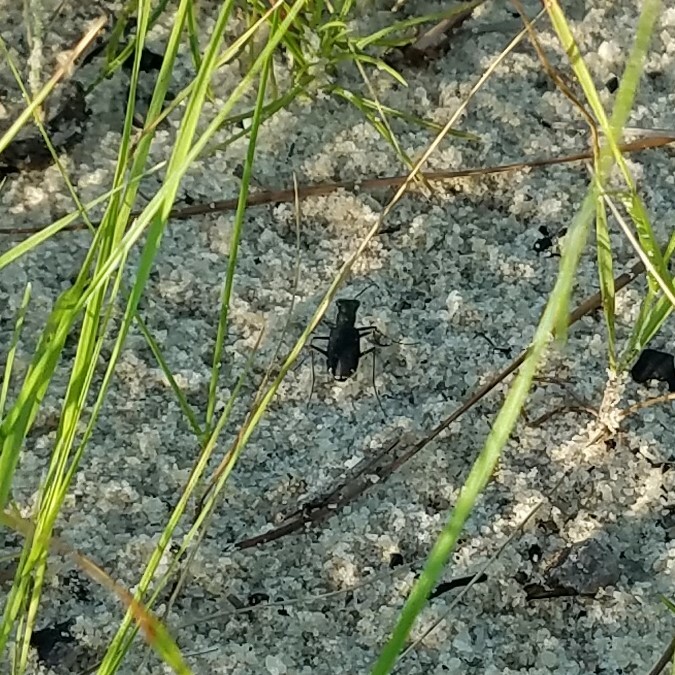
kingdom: Animalia
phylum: Arthropoda
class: Insecta
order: Coleoptera
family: Carabidae
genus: Cicindela
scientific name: Cicindela punctulata
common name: Punctured tiger beetle
